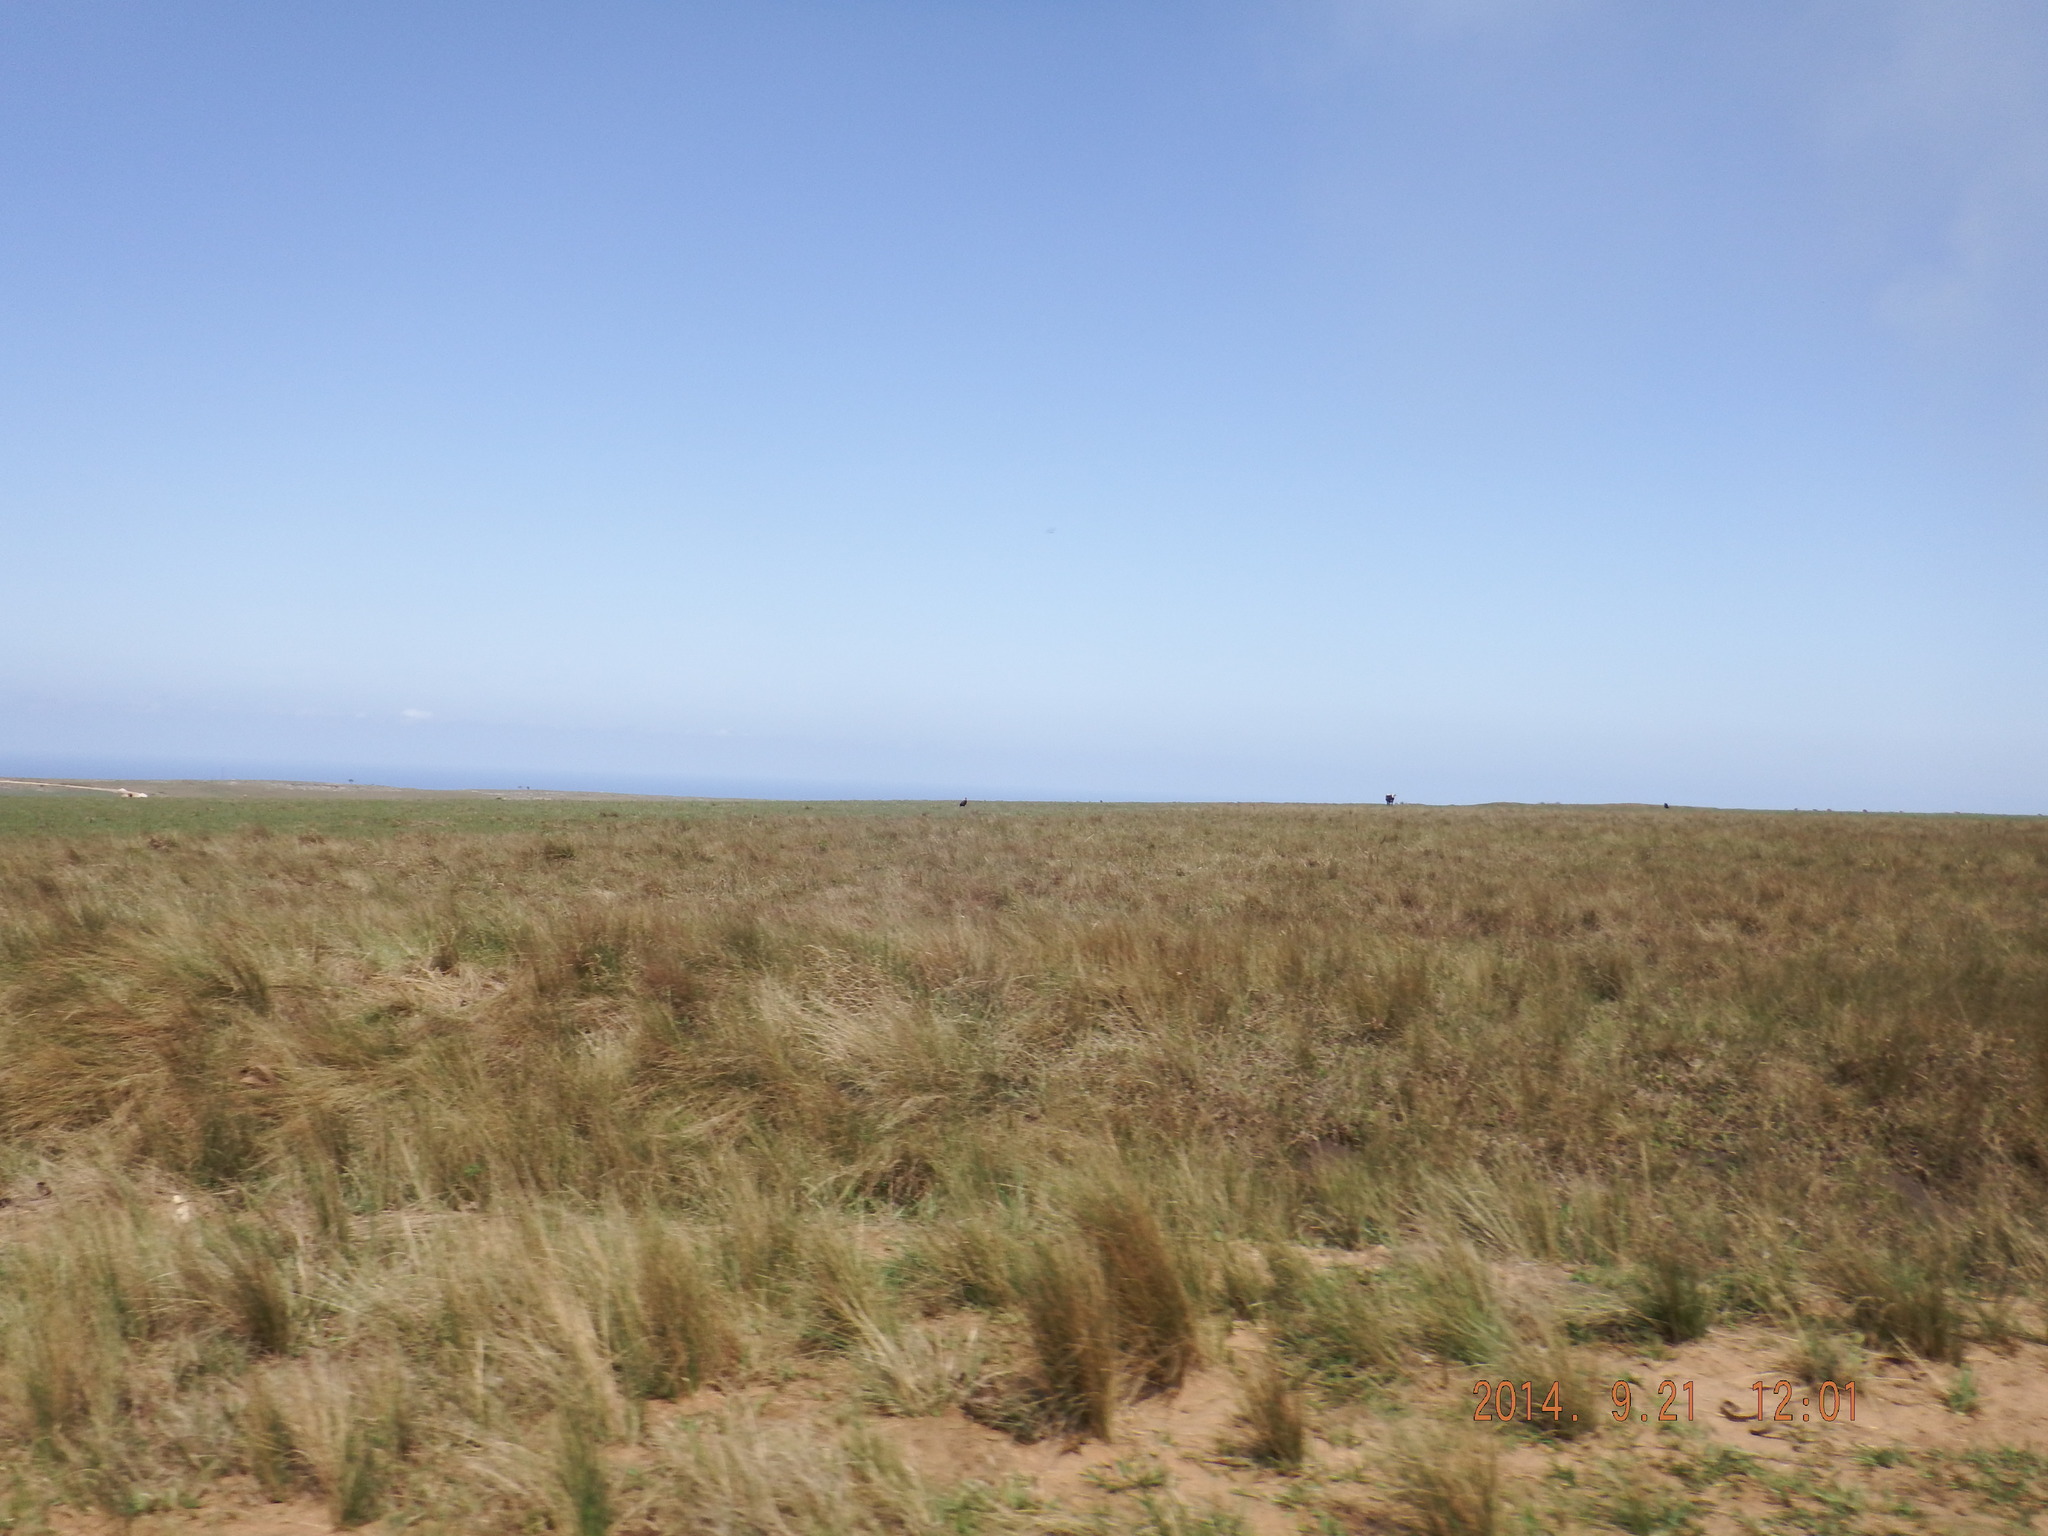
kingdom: Animalia
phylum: Chordata
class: Aves
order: Bucerotiformes
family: Bucorvidae
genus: Bucorvus
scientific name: Bucorvus leadbeateri
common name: Southern ground-hornbill
